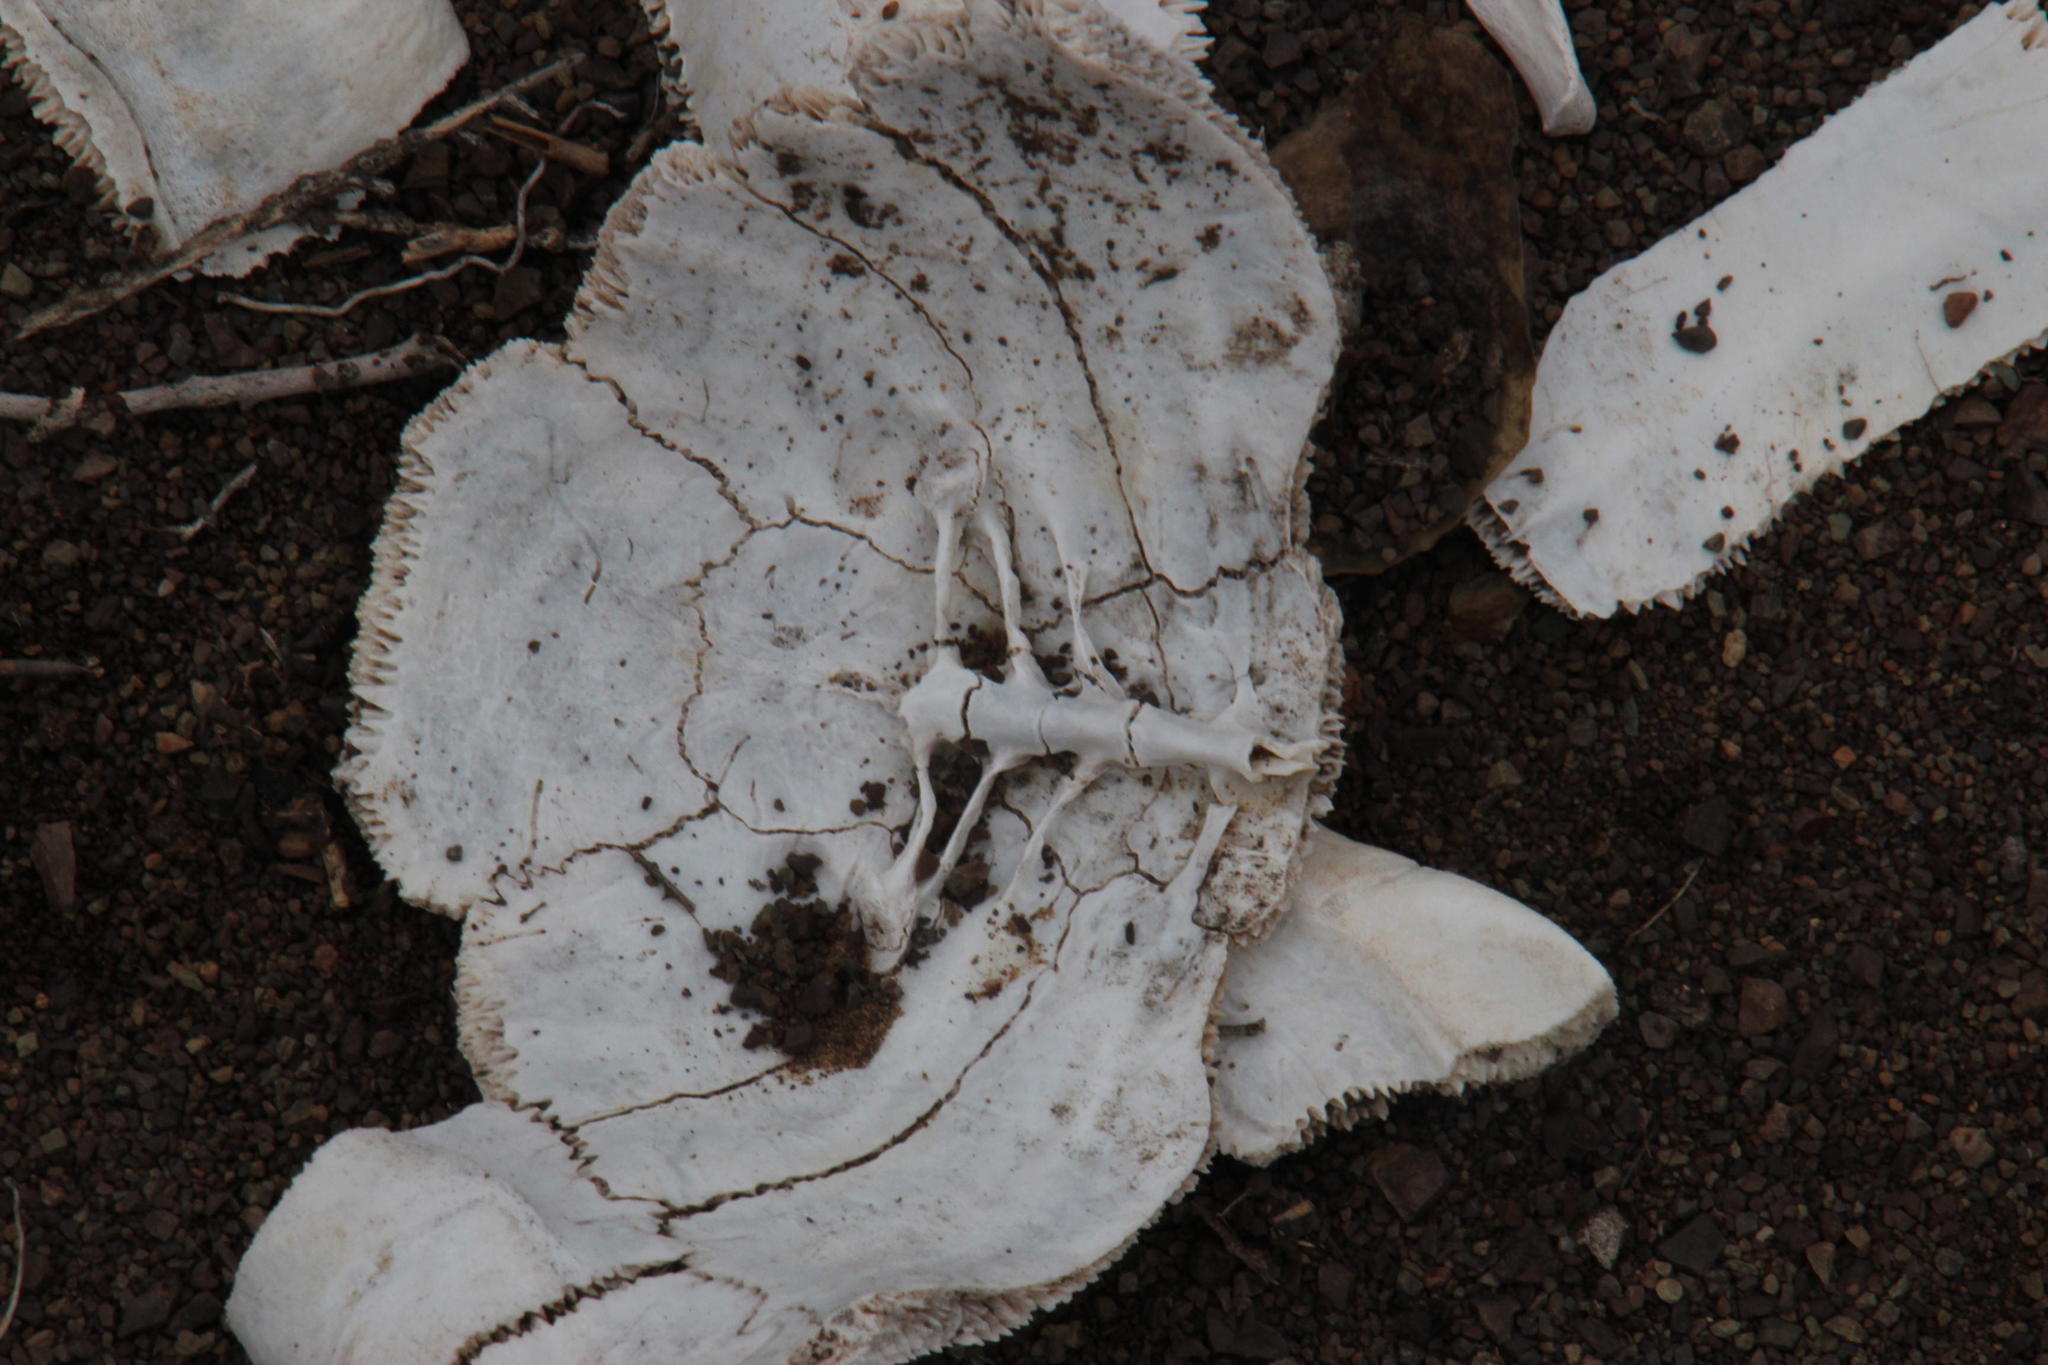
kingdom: Animalia
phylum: Chordata
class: Testudines
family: Testudinidae
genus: Stigmochelys
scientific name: Stigmochelys pardalis
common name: Leopard tortoise
